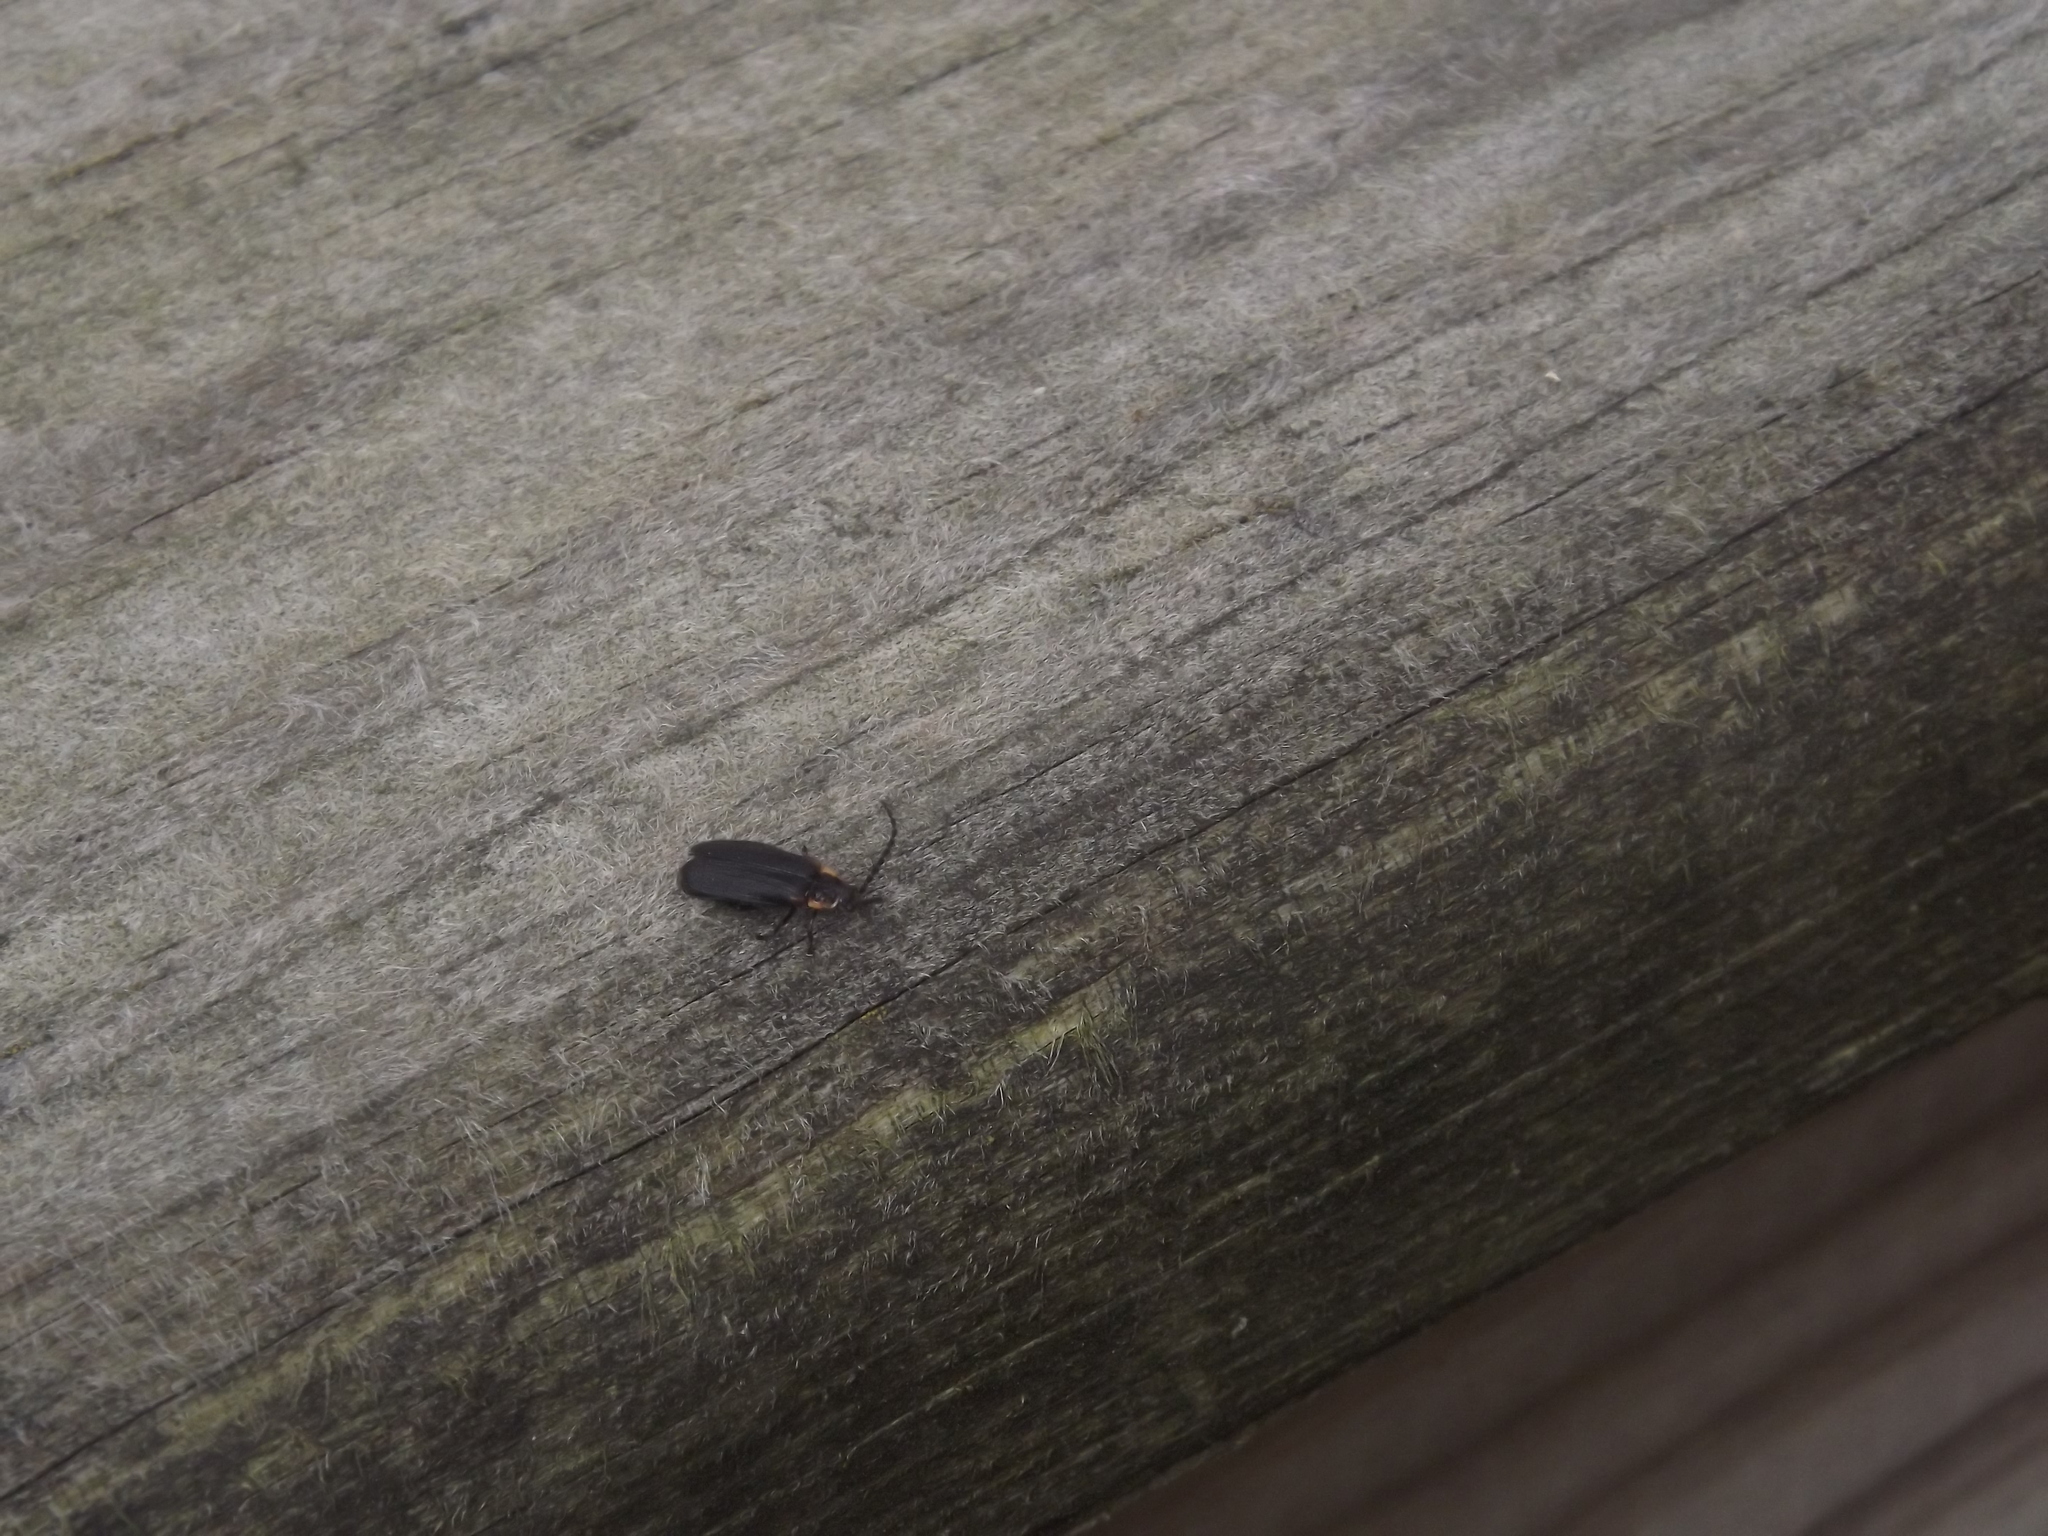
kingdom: Animalia
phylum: Arthropoda
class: Insecta
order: Coleoptera
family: Cantharidae
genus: Polemius
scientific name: Polemius laticornis
